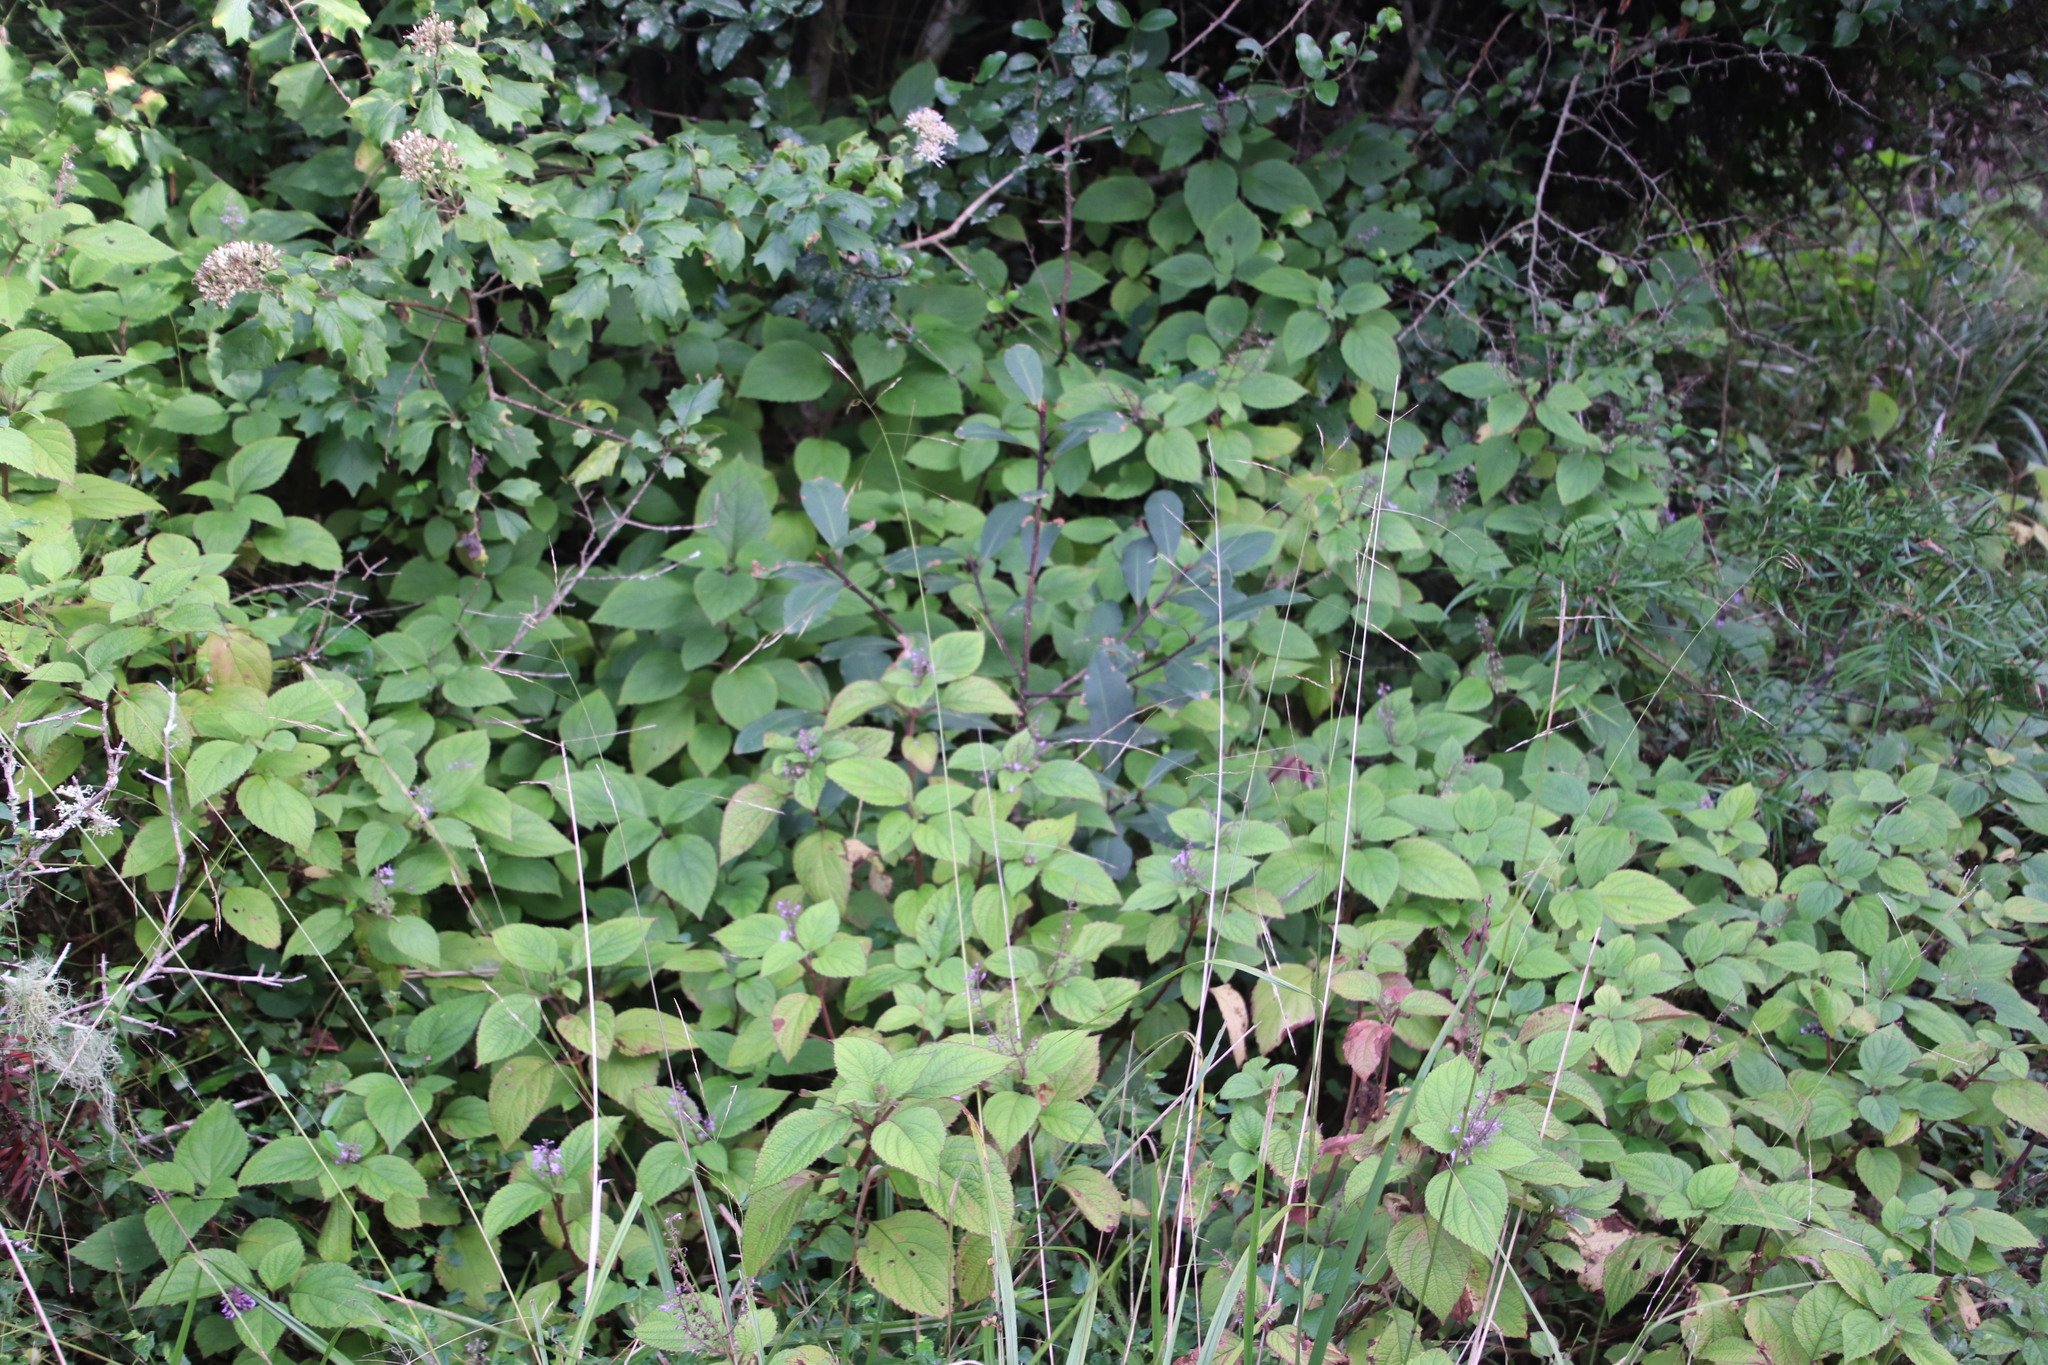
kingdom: Plantae
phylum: Tracheophyta
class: Magnoliopsida
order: Lamiales
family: Lamiaceae
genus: Plectranthus
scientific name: Plectranthus fruticosus
